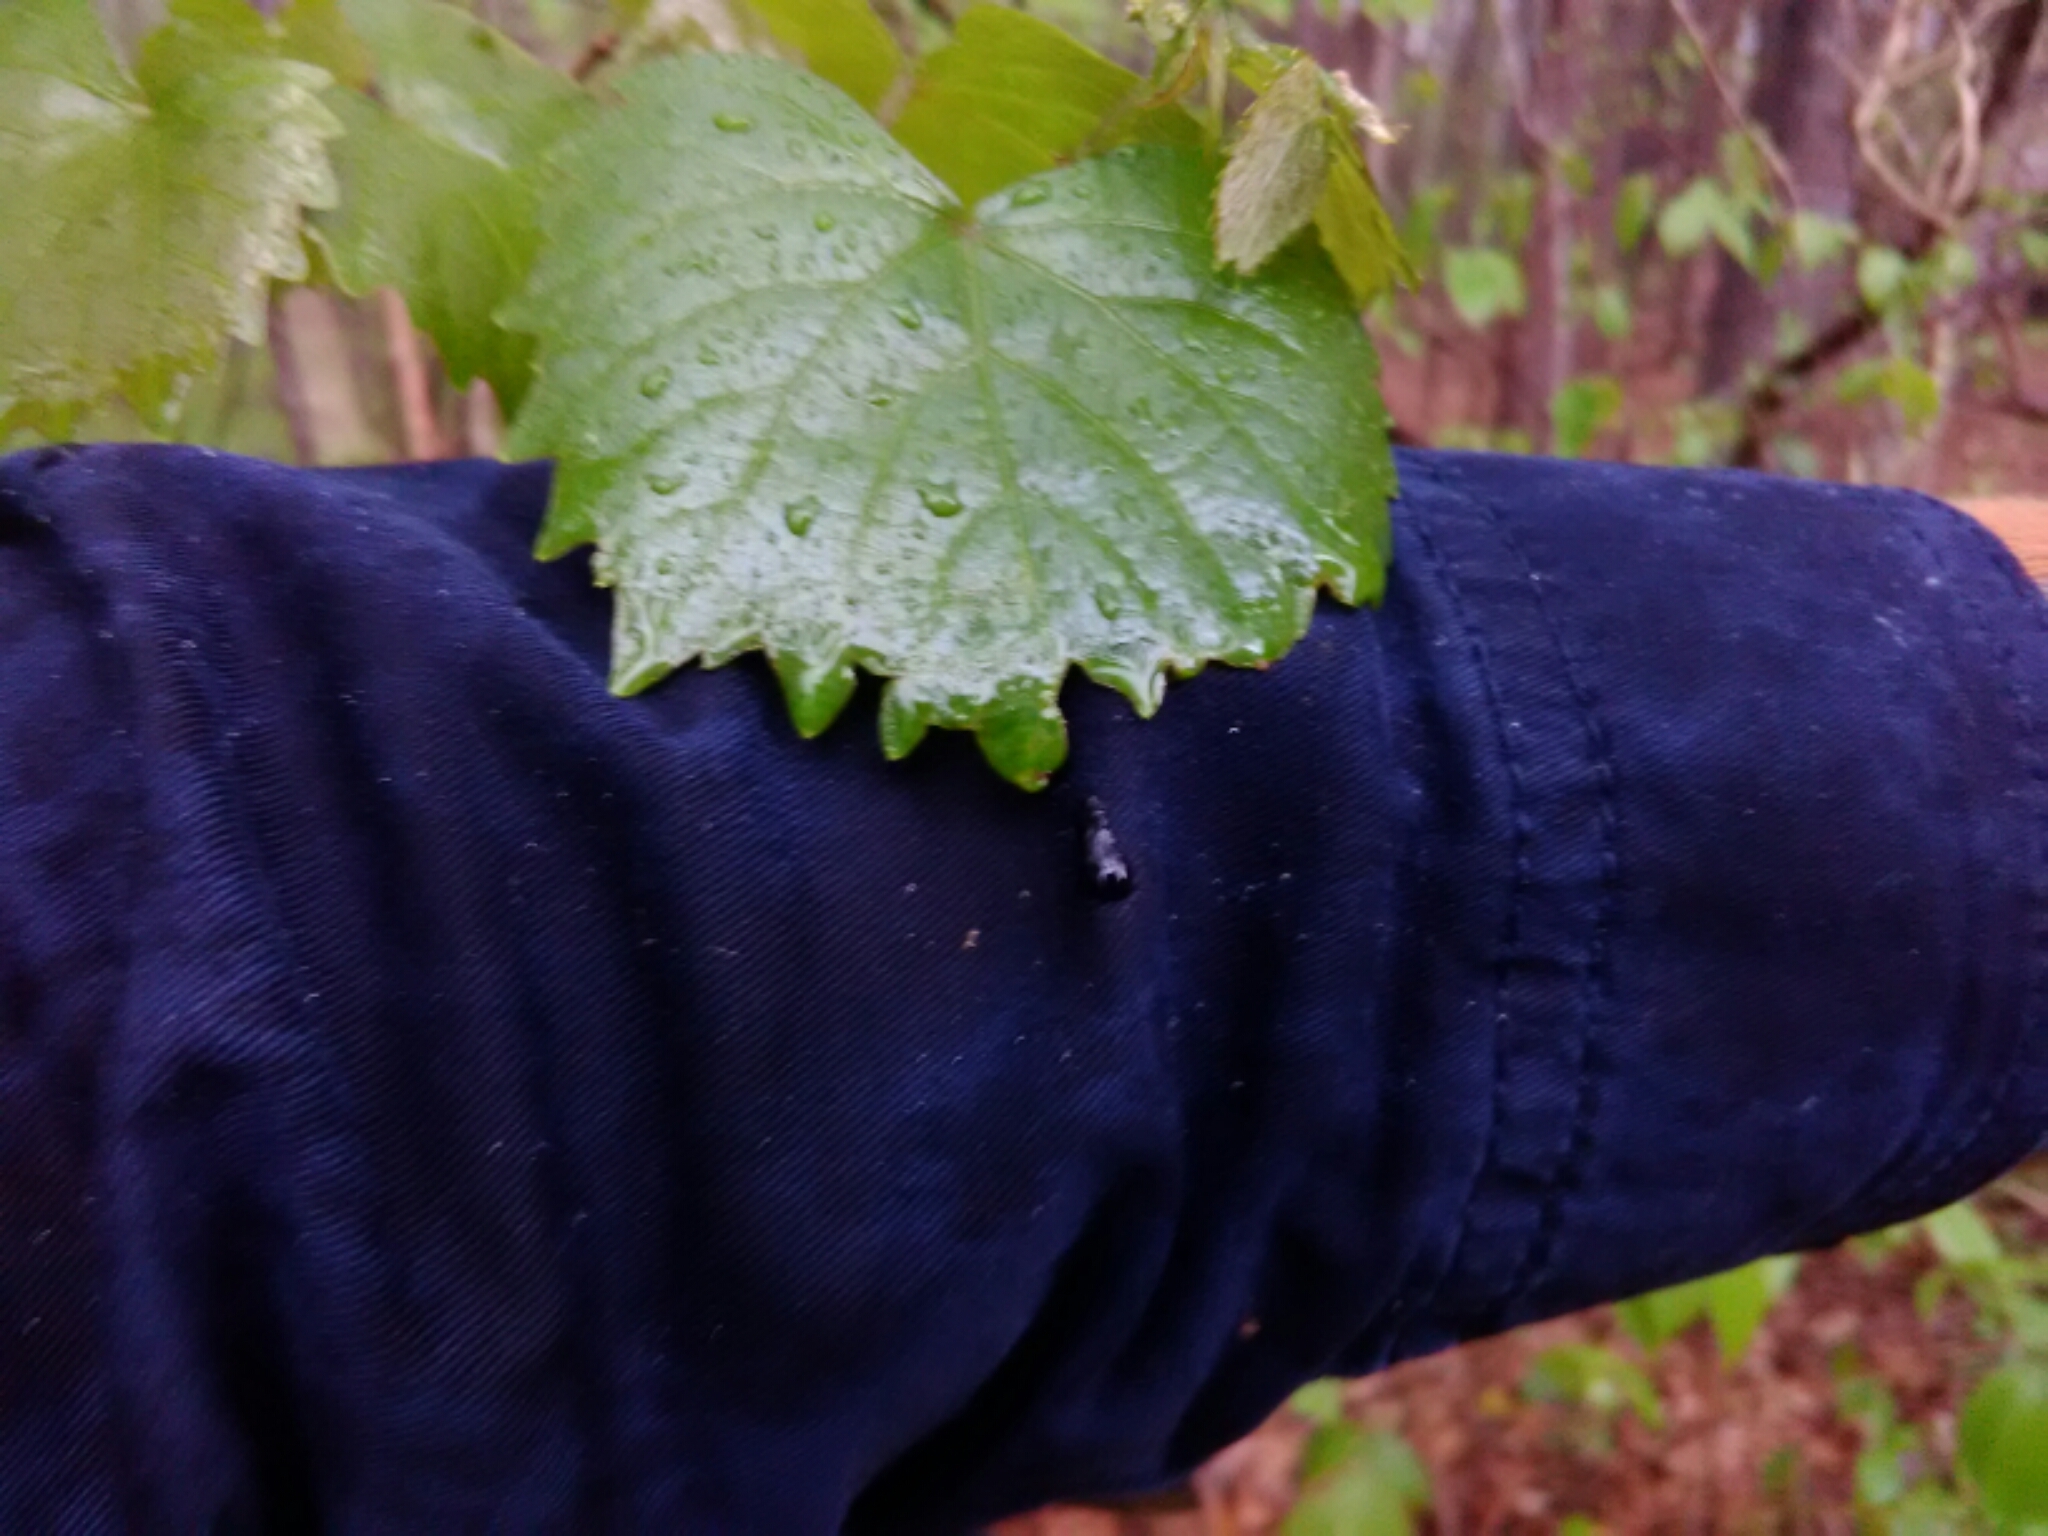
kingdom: Plantae
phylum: Tracheophyta
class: Magnoliopsida
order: Vitales
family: Vitaceae
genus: Vitis
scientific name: Vitis rotundifolia
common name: Muscadine grape
